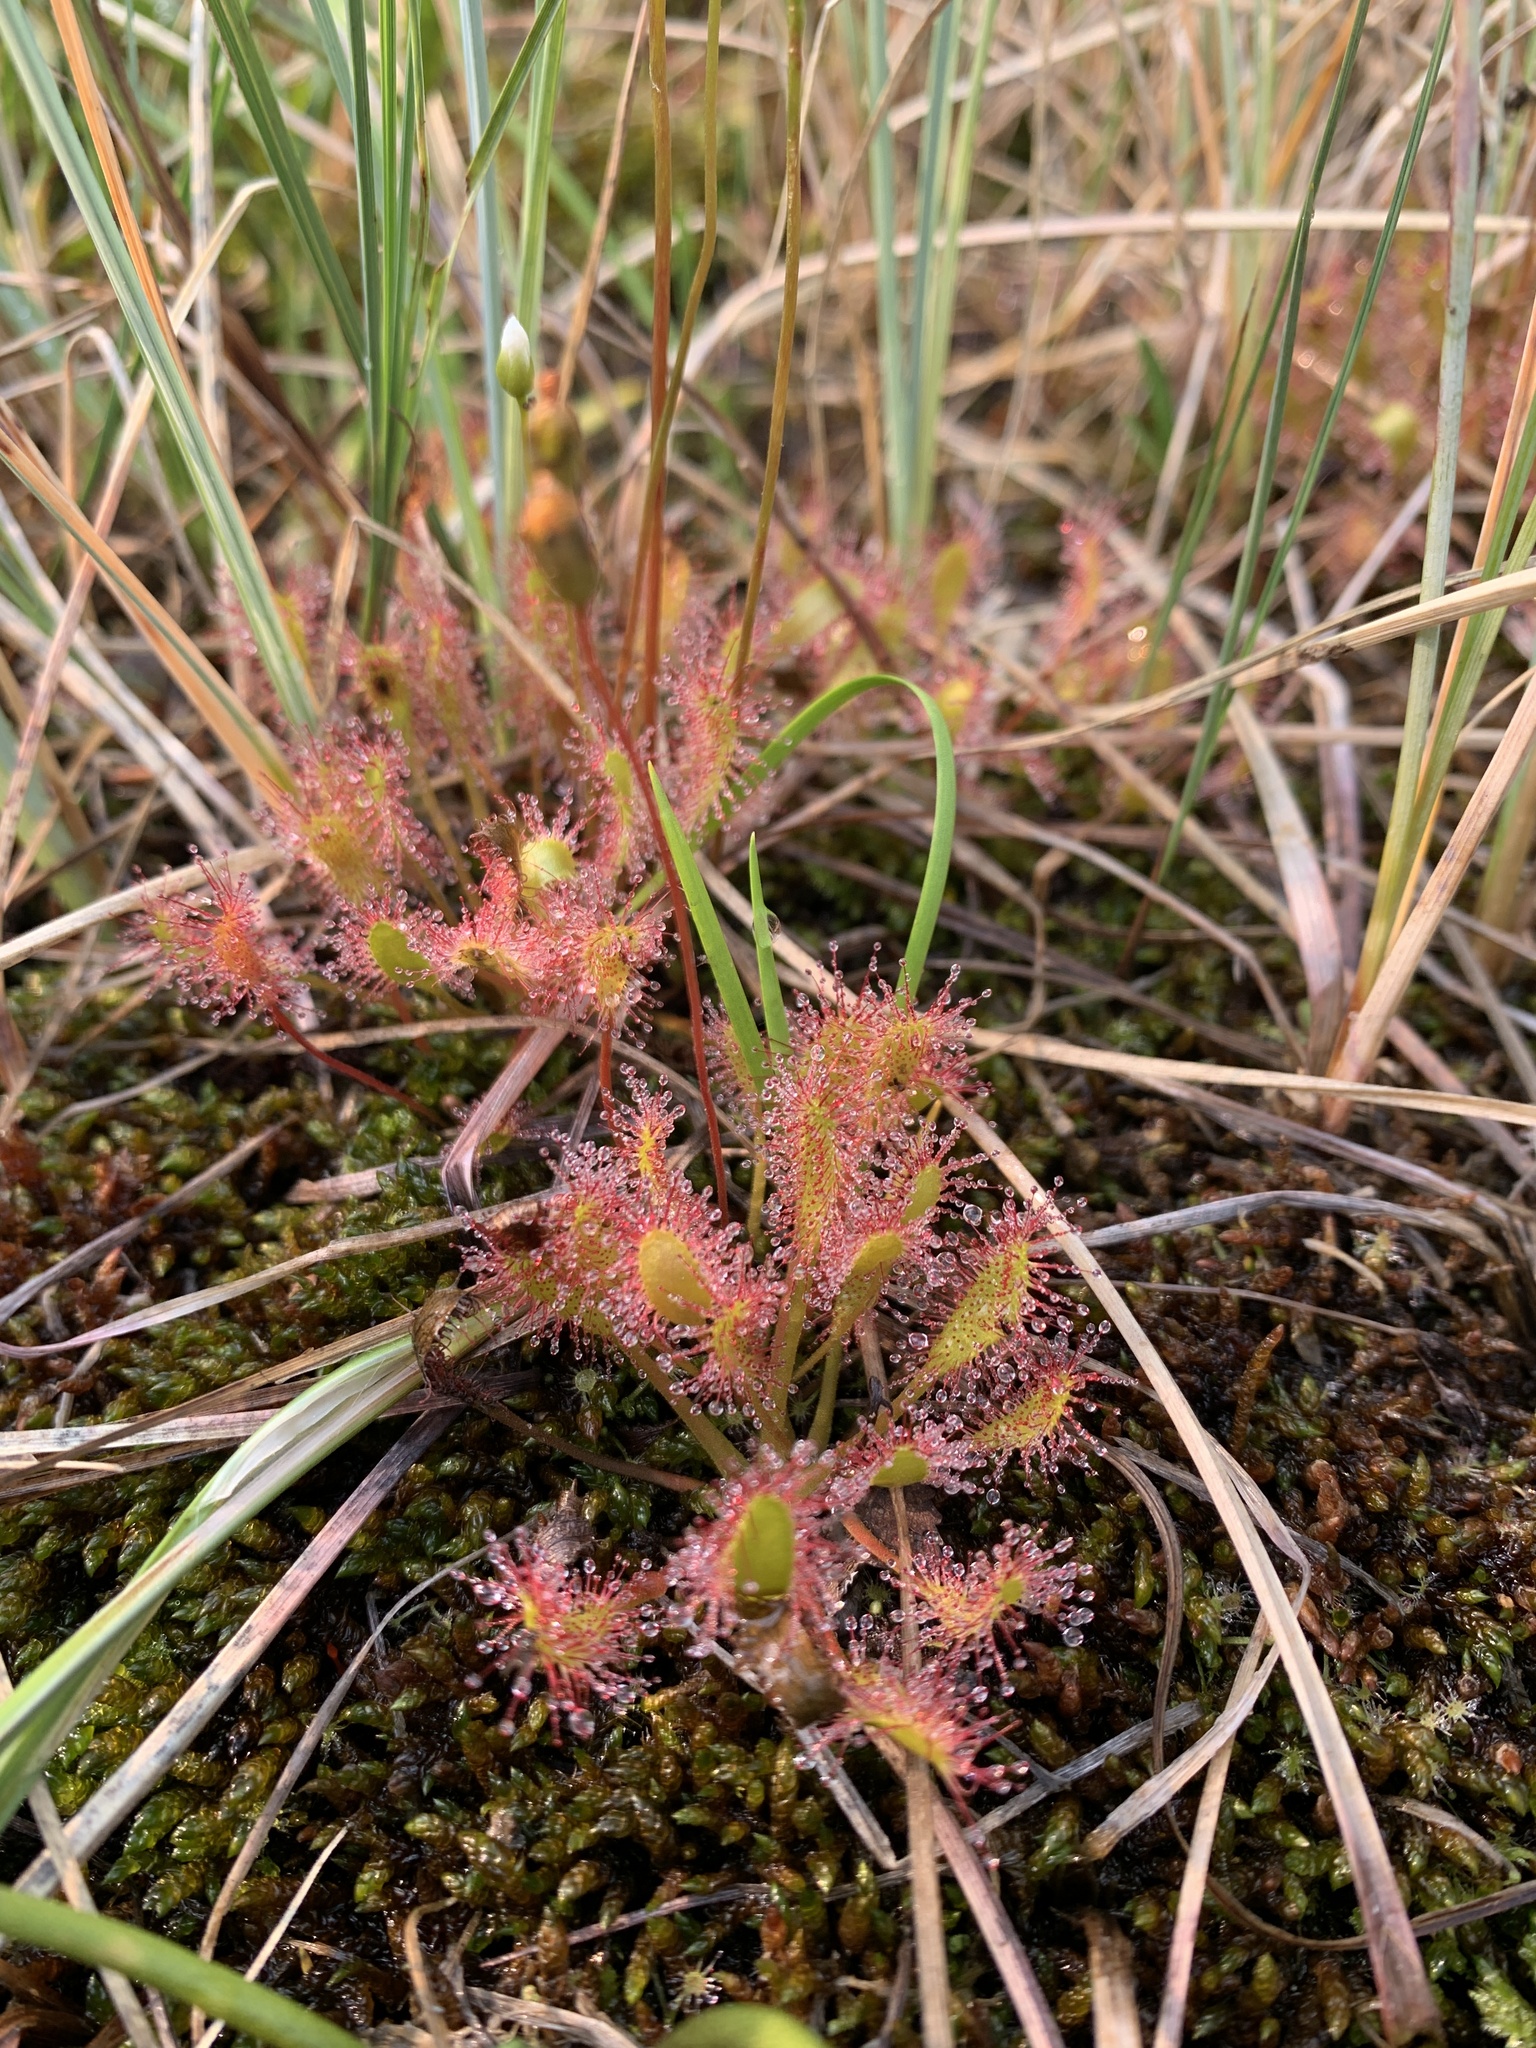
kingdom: Plantae
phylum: Tracheophyta
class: Magnoliopsida
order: Caryophyllales
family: Droseraceae
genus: Drosera
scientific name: Drosera anglica
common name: Great sundew
